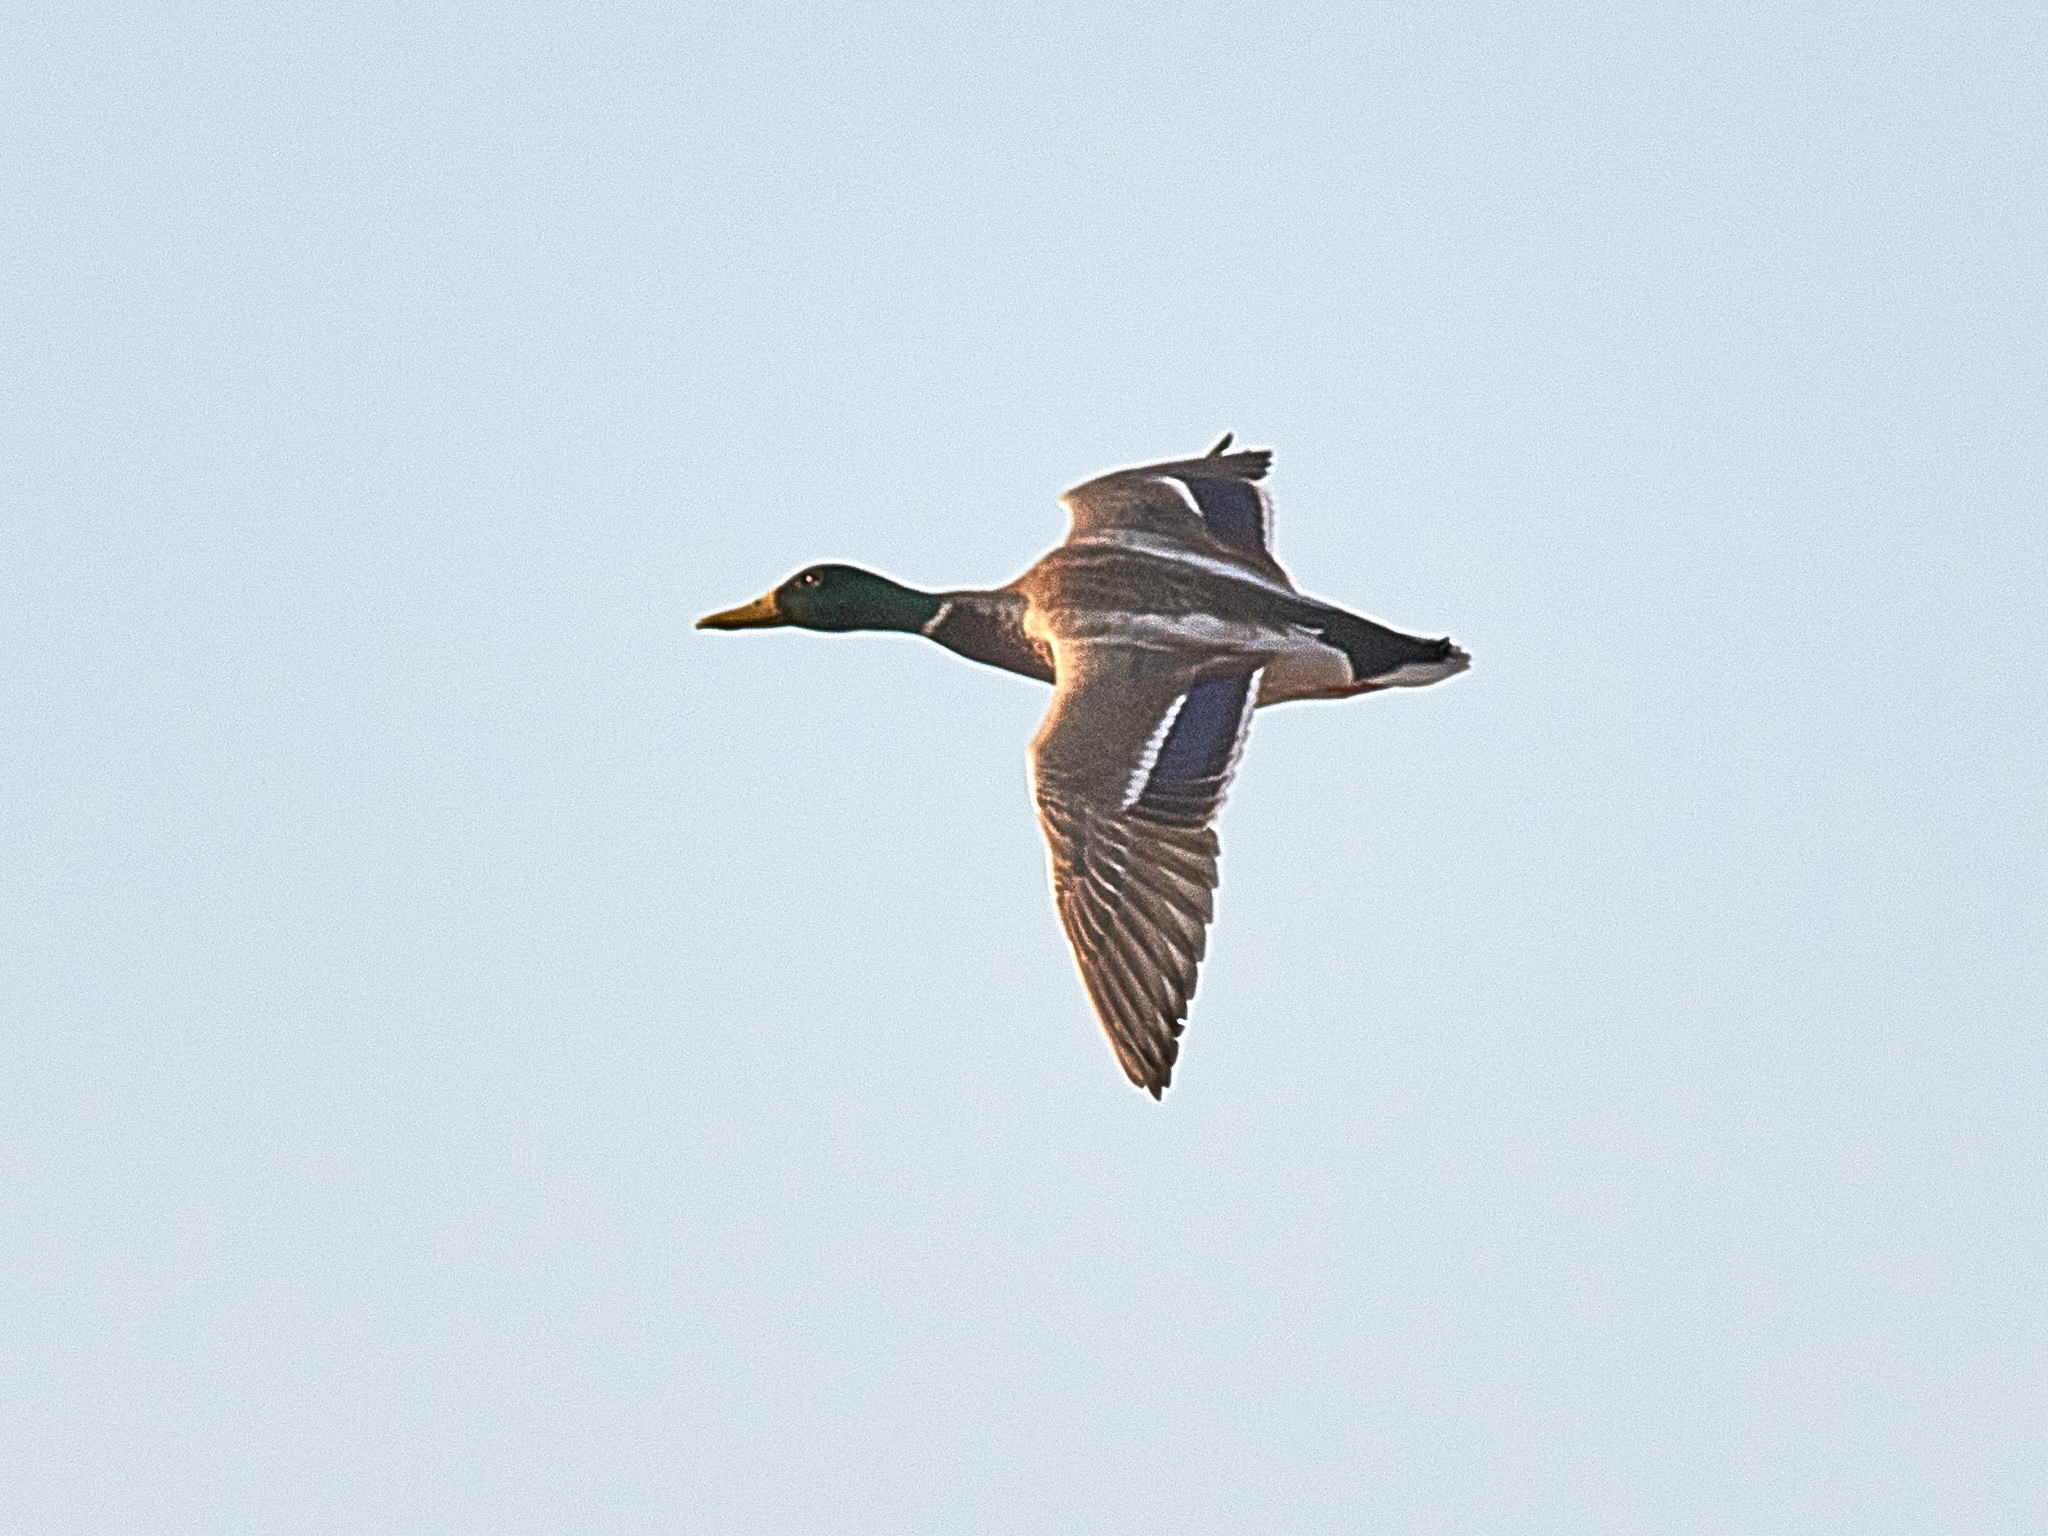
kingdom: Animalia
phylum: Chordata
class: Aves
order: Anseriformes
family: Anatidae
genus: Anas
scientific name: Anas platyrhynchos
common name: Mallard
